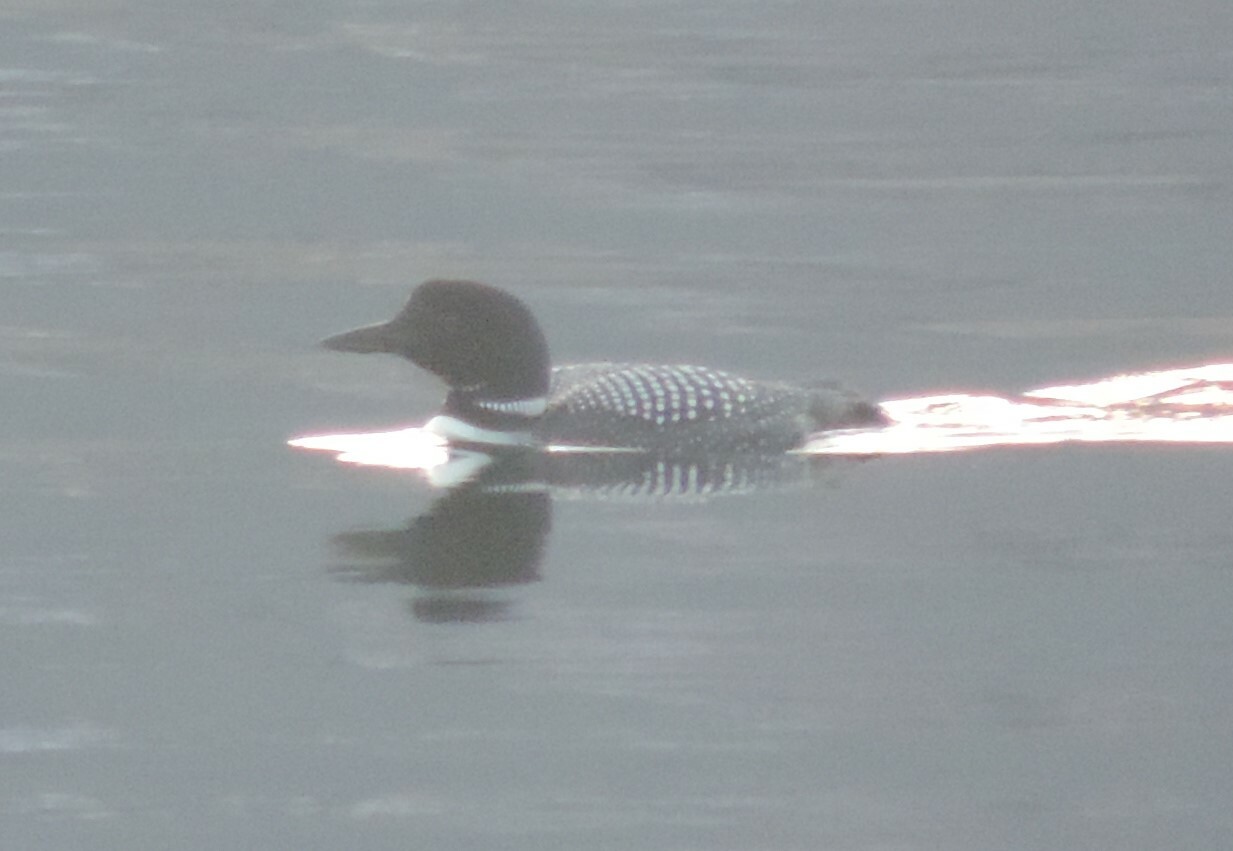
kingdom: Animalia
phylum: Chordata
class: Aves
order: Gaviiformes
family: Gaviidae
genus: Gavia
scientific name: Gavia immer
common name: Common loon
